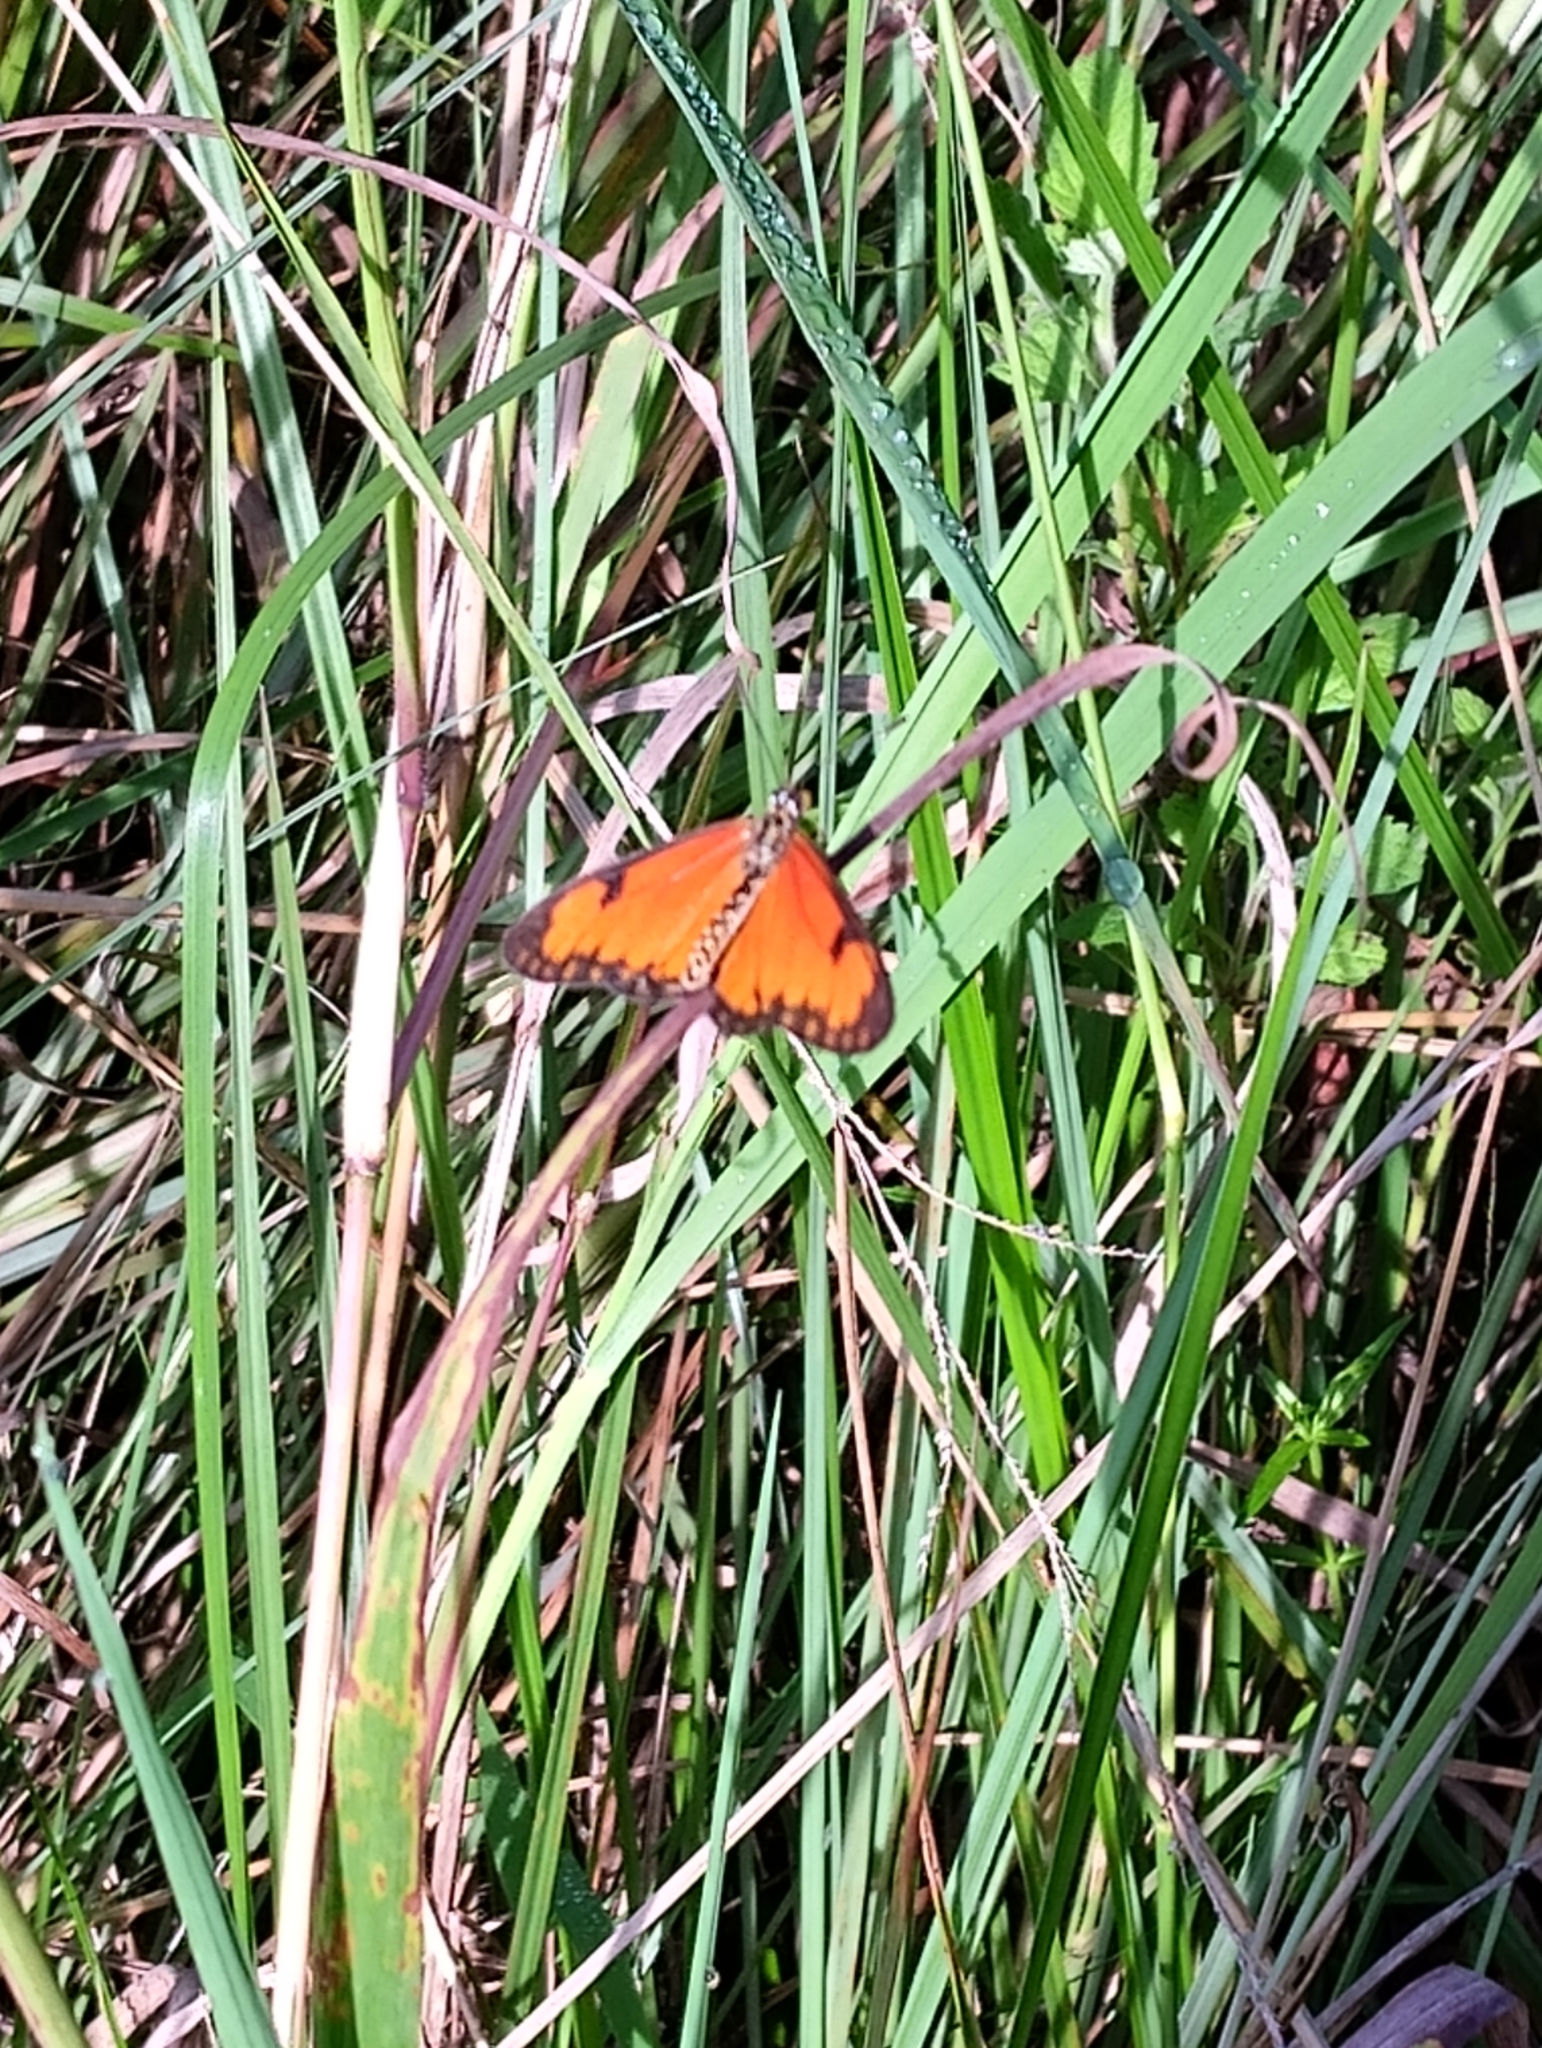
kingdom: Animalia
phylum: Arthropoda
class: Insecta
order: Lepidoptera
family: Nymphalidae
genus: Acraea
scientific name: Acraea Telchinia serena
